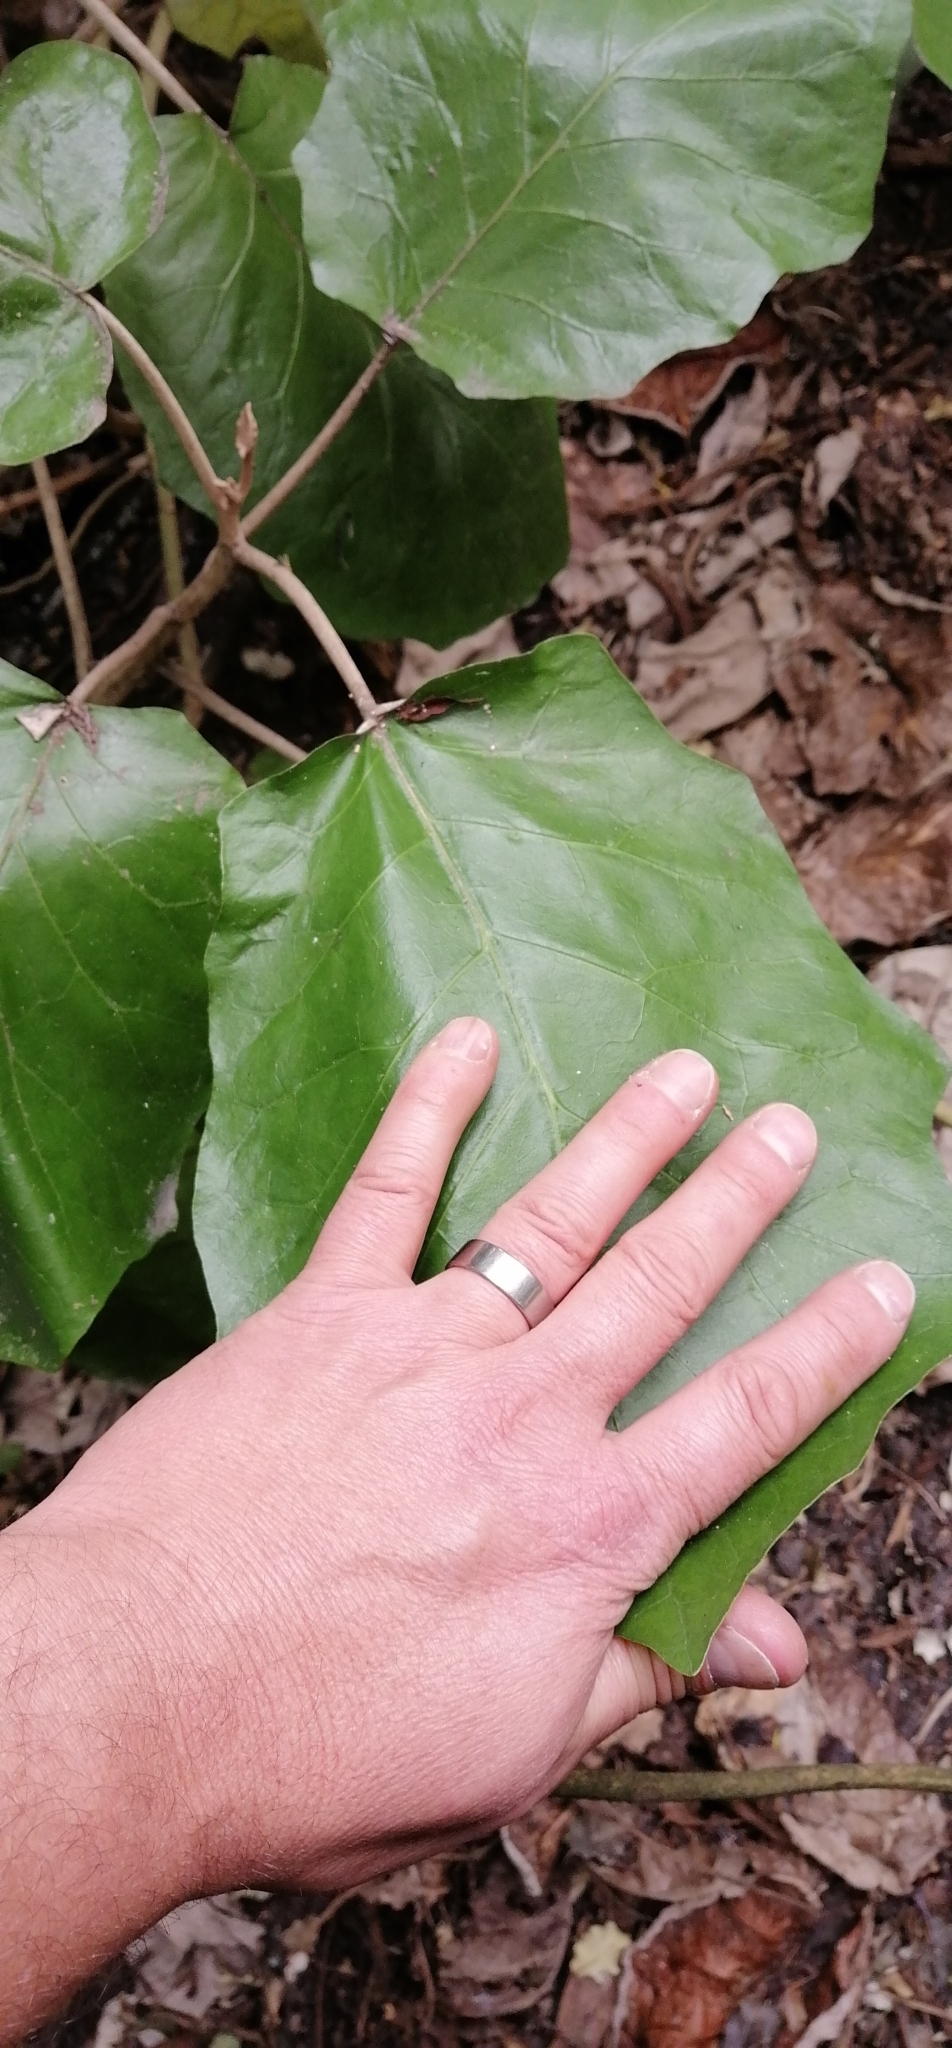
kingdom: Plantae
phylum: Tracheophyta
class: Magnoliopsida
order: Asterales
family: Asteraceae
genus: Brachyglottis
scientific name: Brachyglottis repanda
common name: Hedge ragwort
